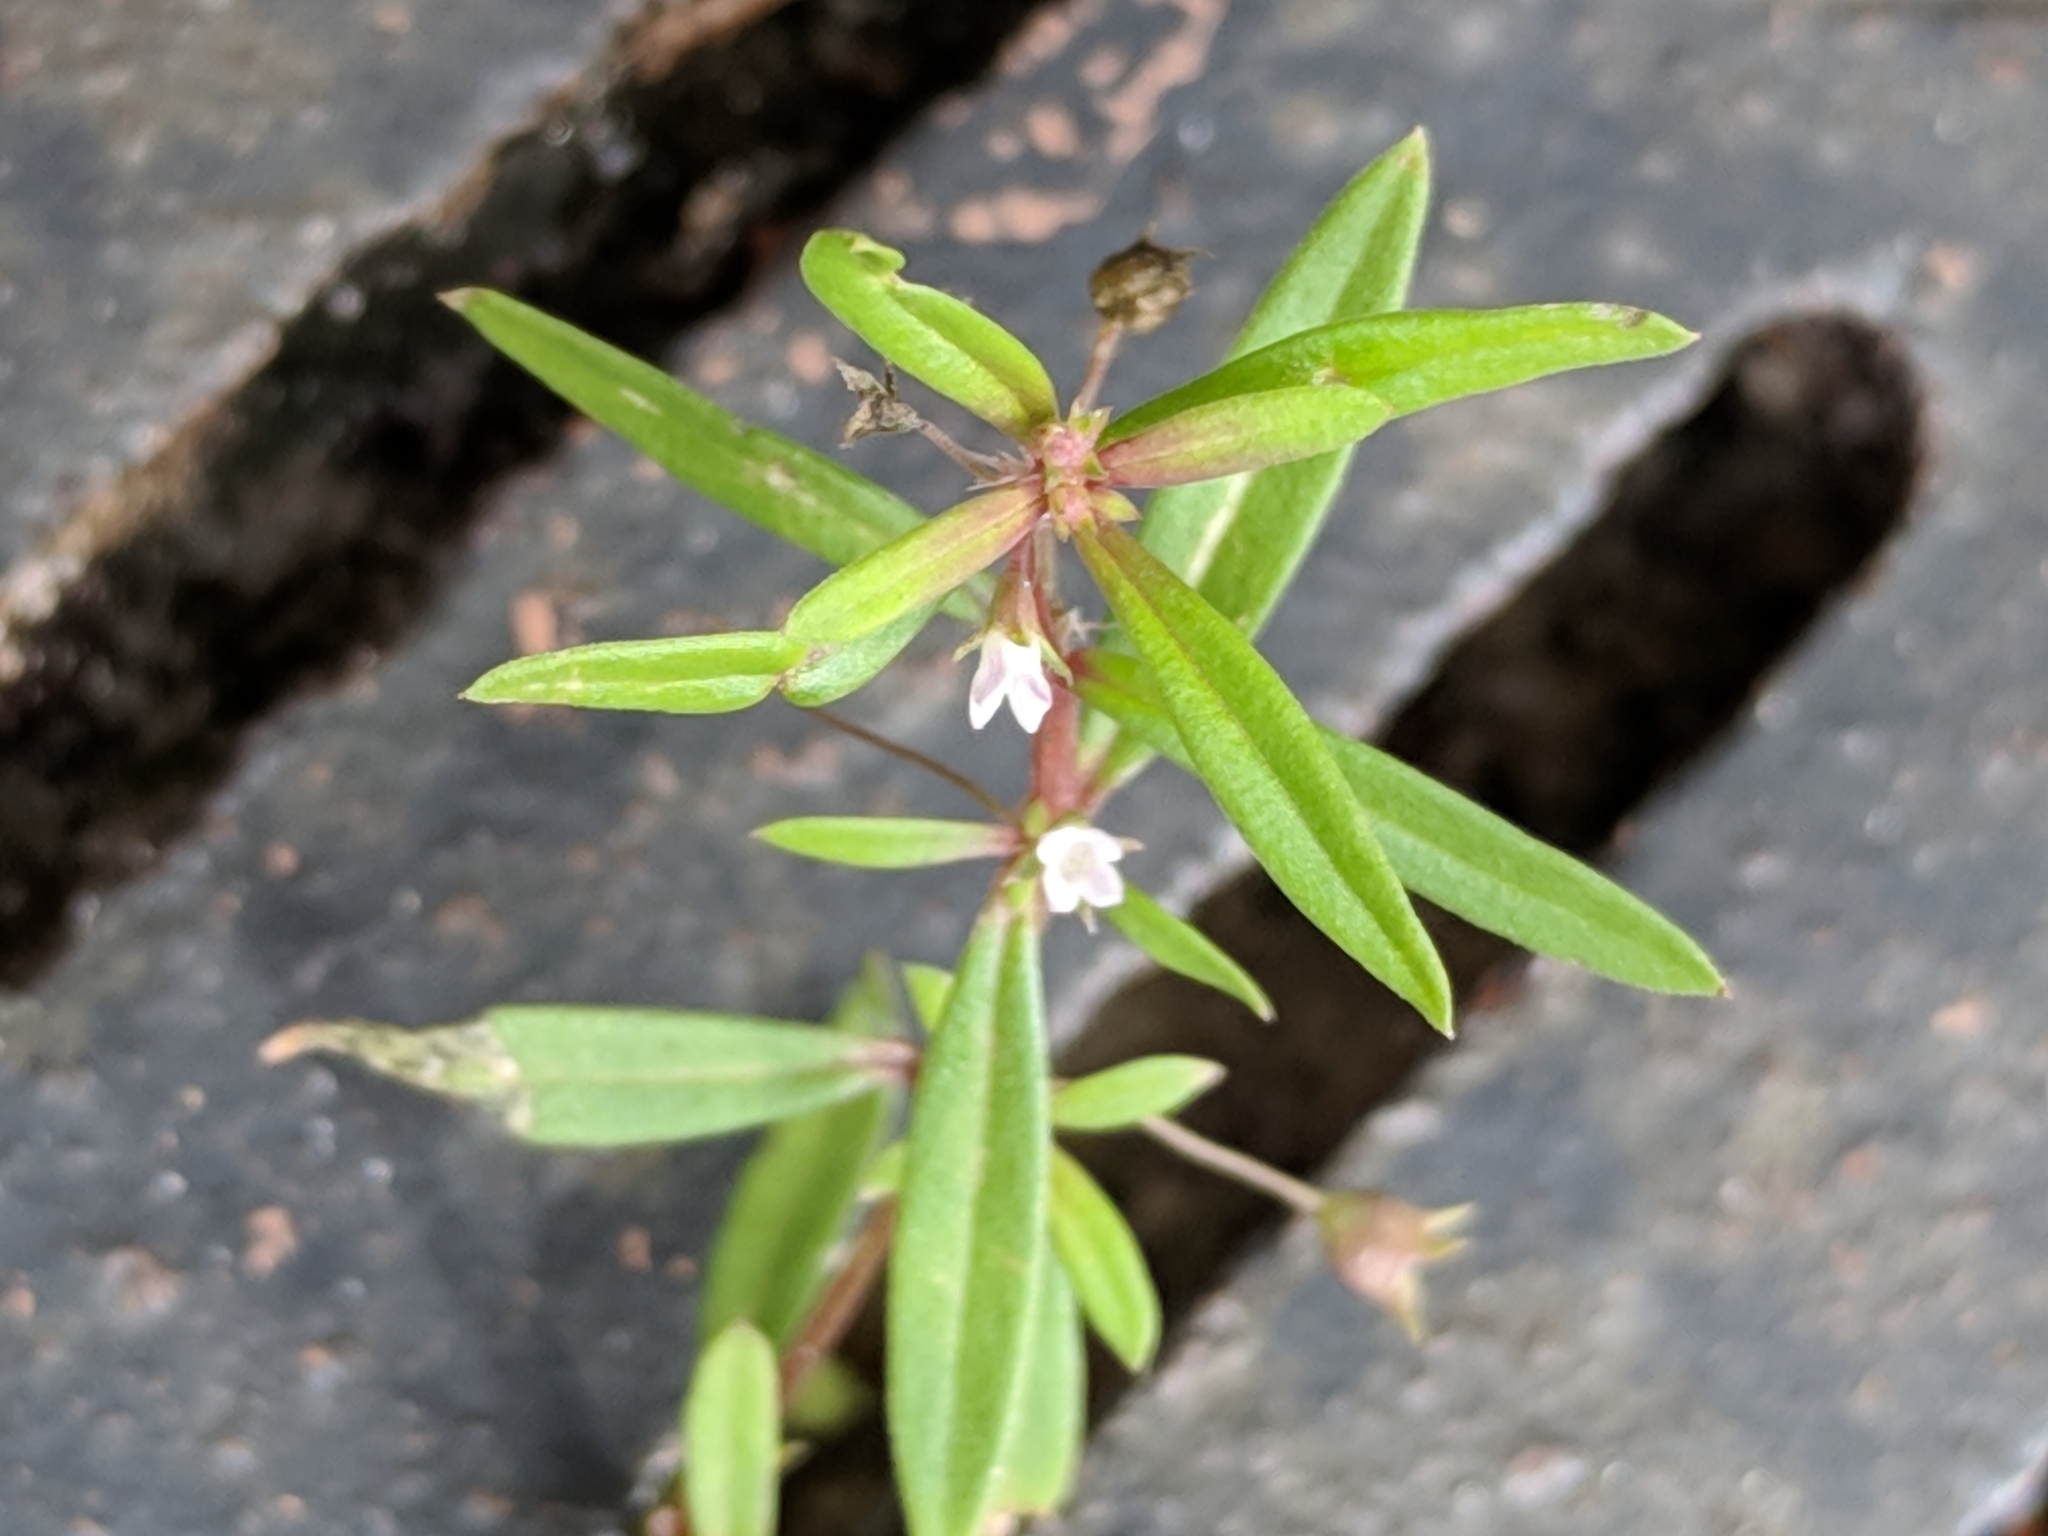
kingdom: Plantae
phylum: Tracheophyta
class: Magnoliopsida
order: Gentianales
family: Rubiaceae
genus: Oldenlandia
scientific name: Oldenlandia corymbosa
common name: Flat-top mille graines
